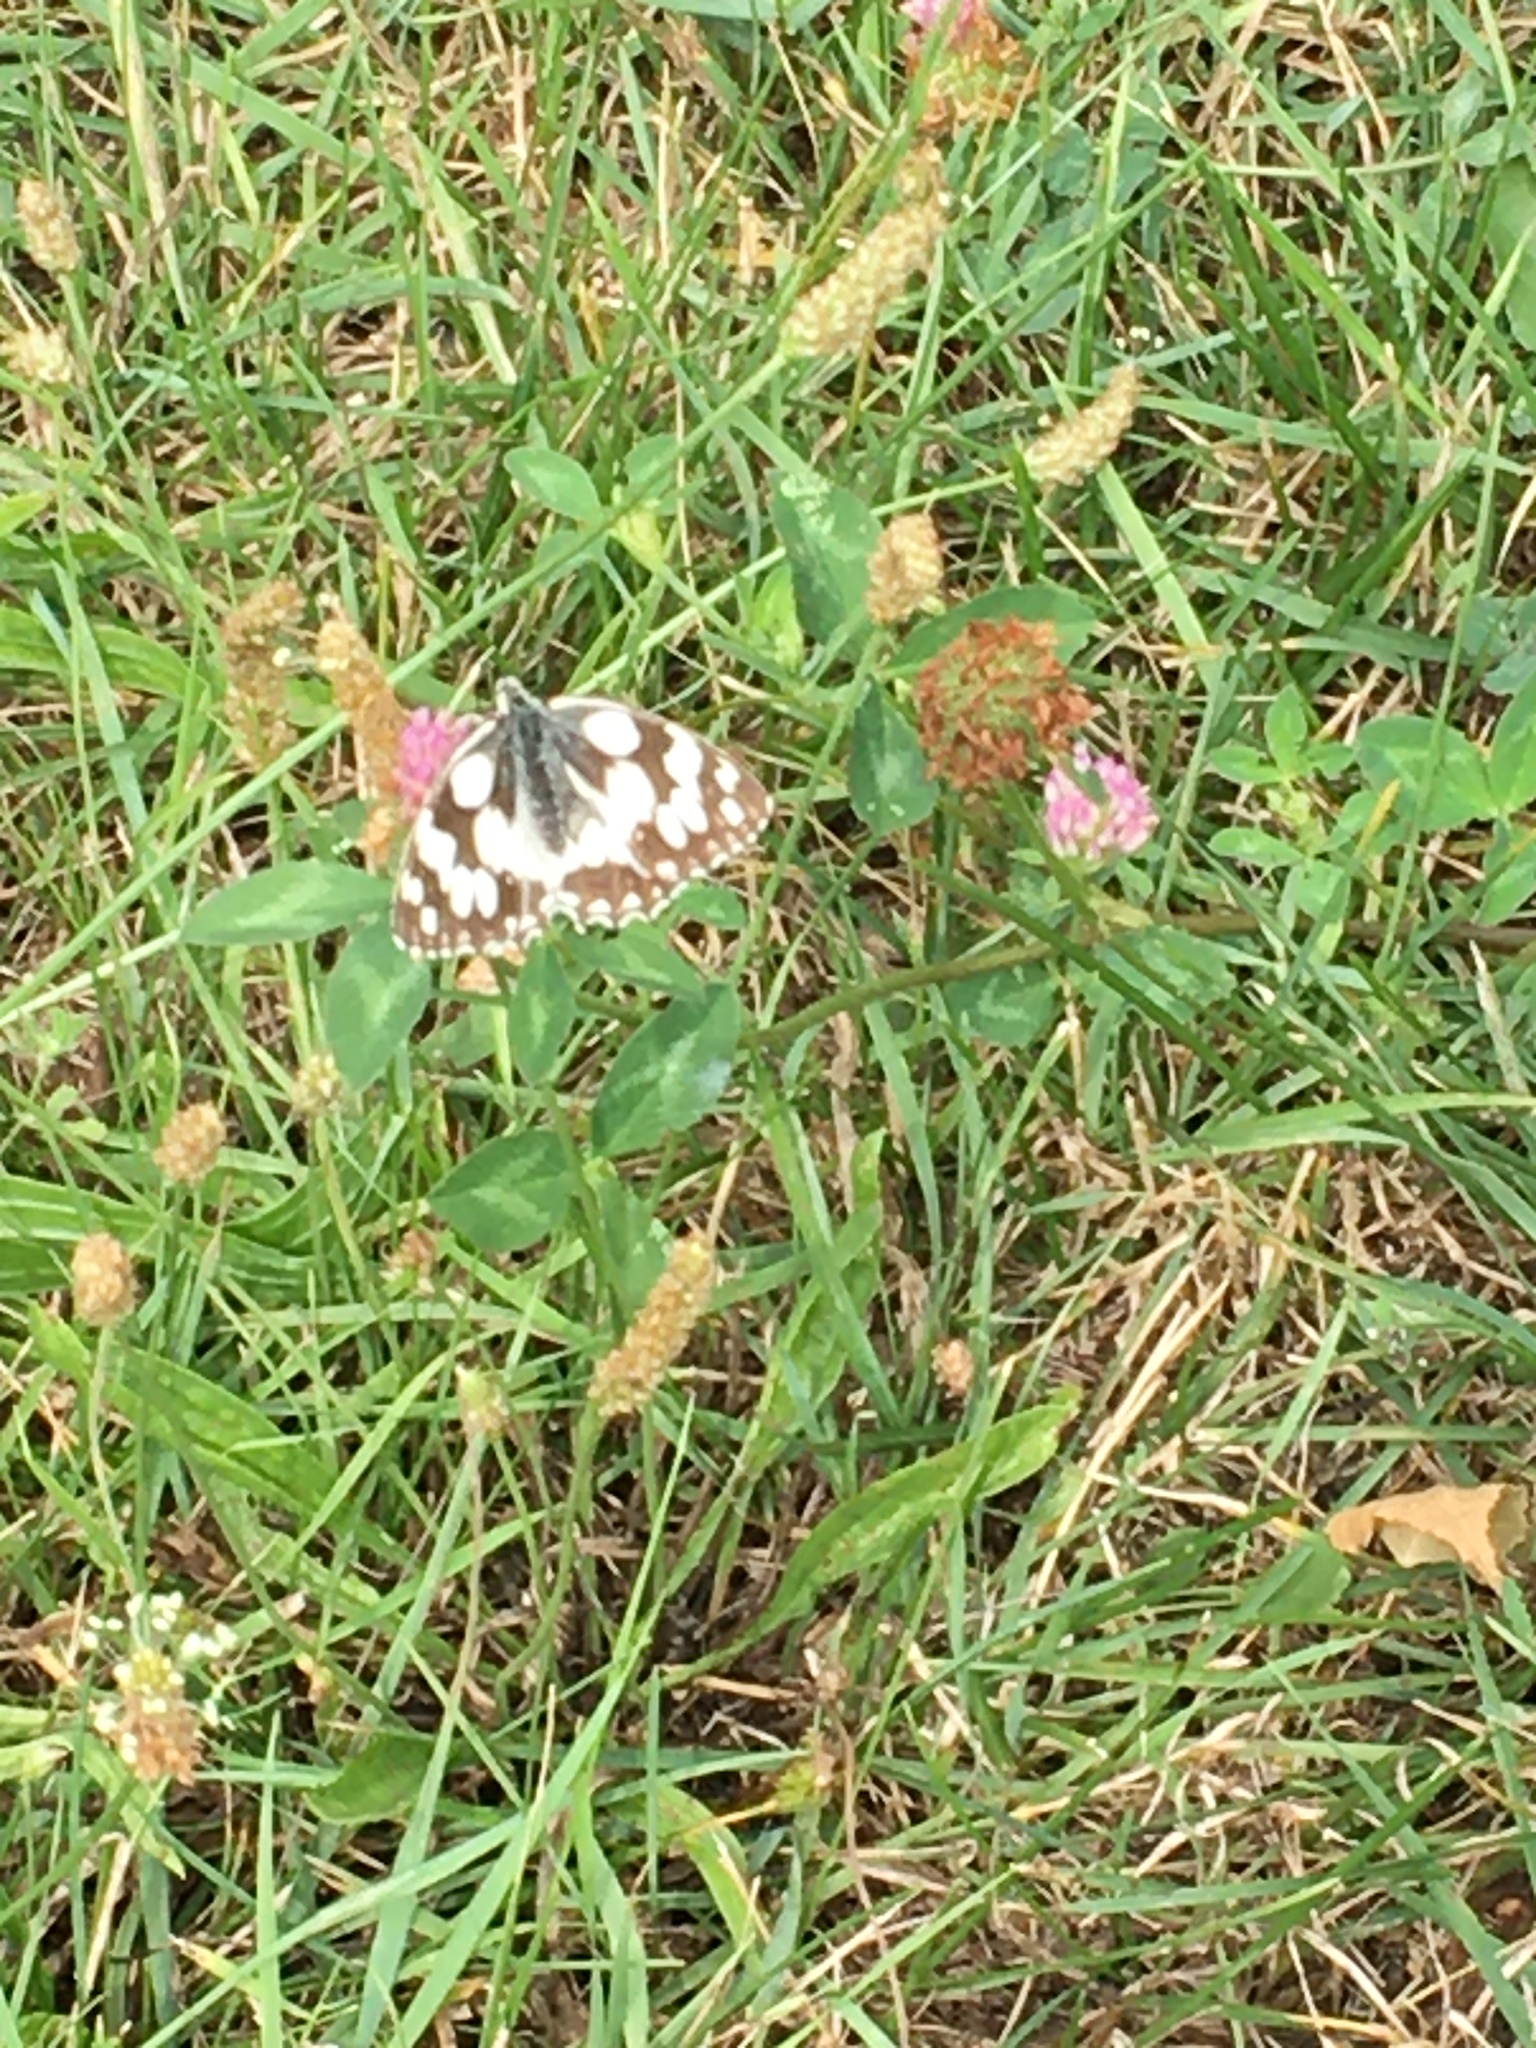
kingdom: Animalia
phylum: Arthropoda
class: Insecta
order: Lepidoptera
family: Nymphalidae
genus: Melanargia
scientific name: Melanargia galathea
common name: Marbled white
